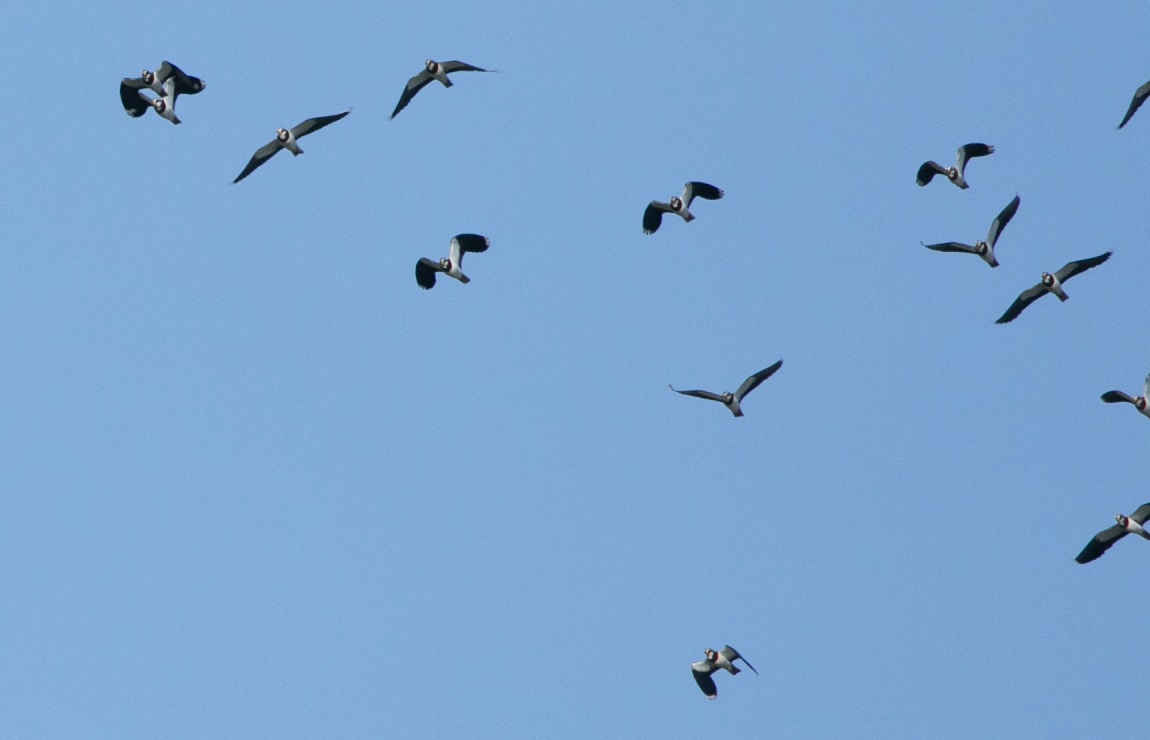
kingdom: Animalia
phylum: Chordata
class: Aves
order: Charadriiformes
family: Charadriidae
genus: Vanellus
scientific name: Vanellus vanellus
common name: Northern lapwing
